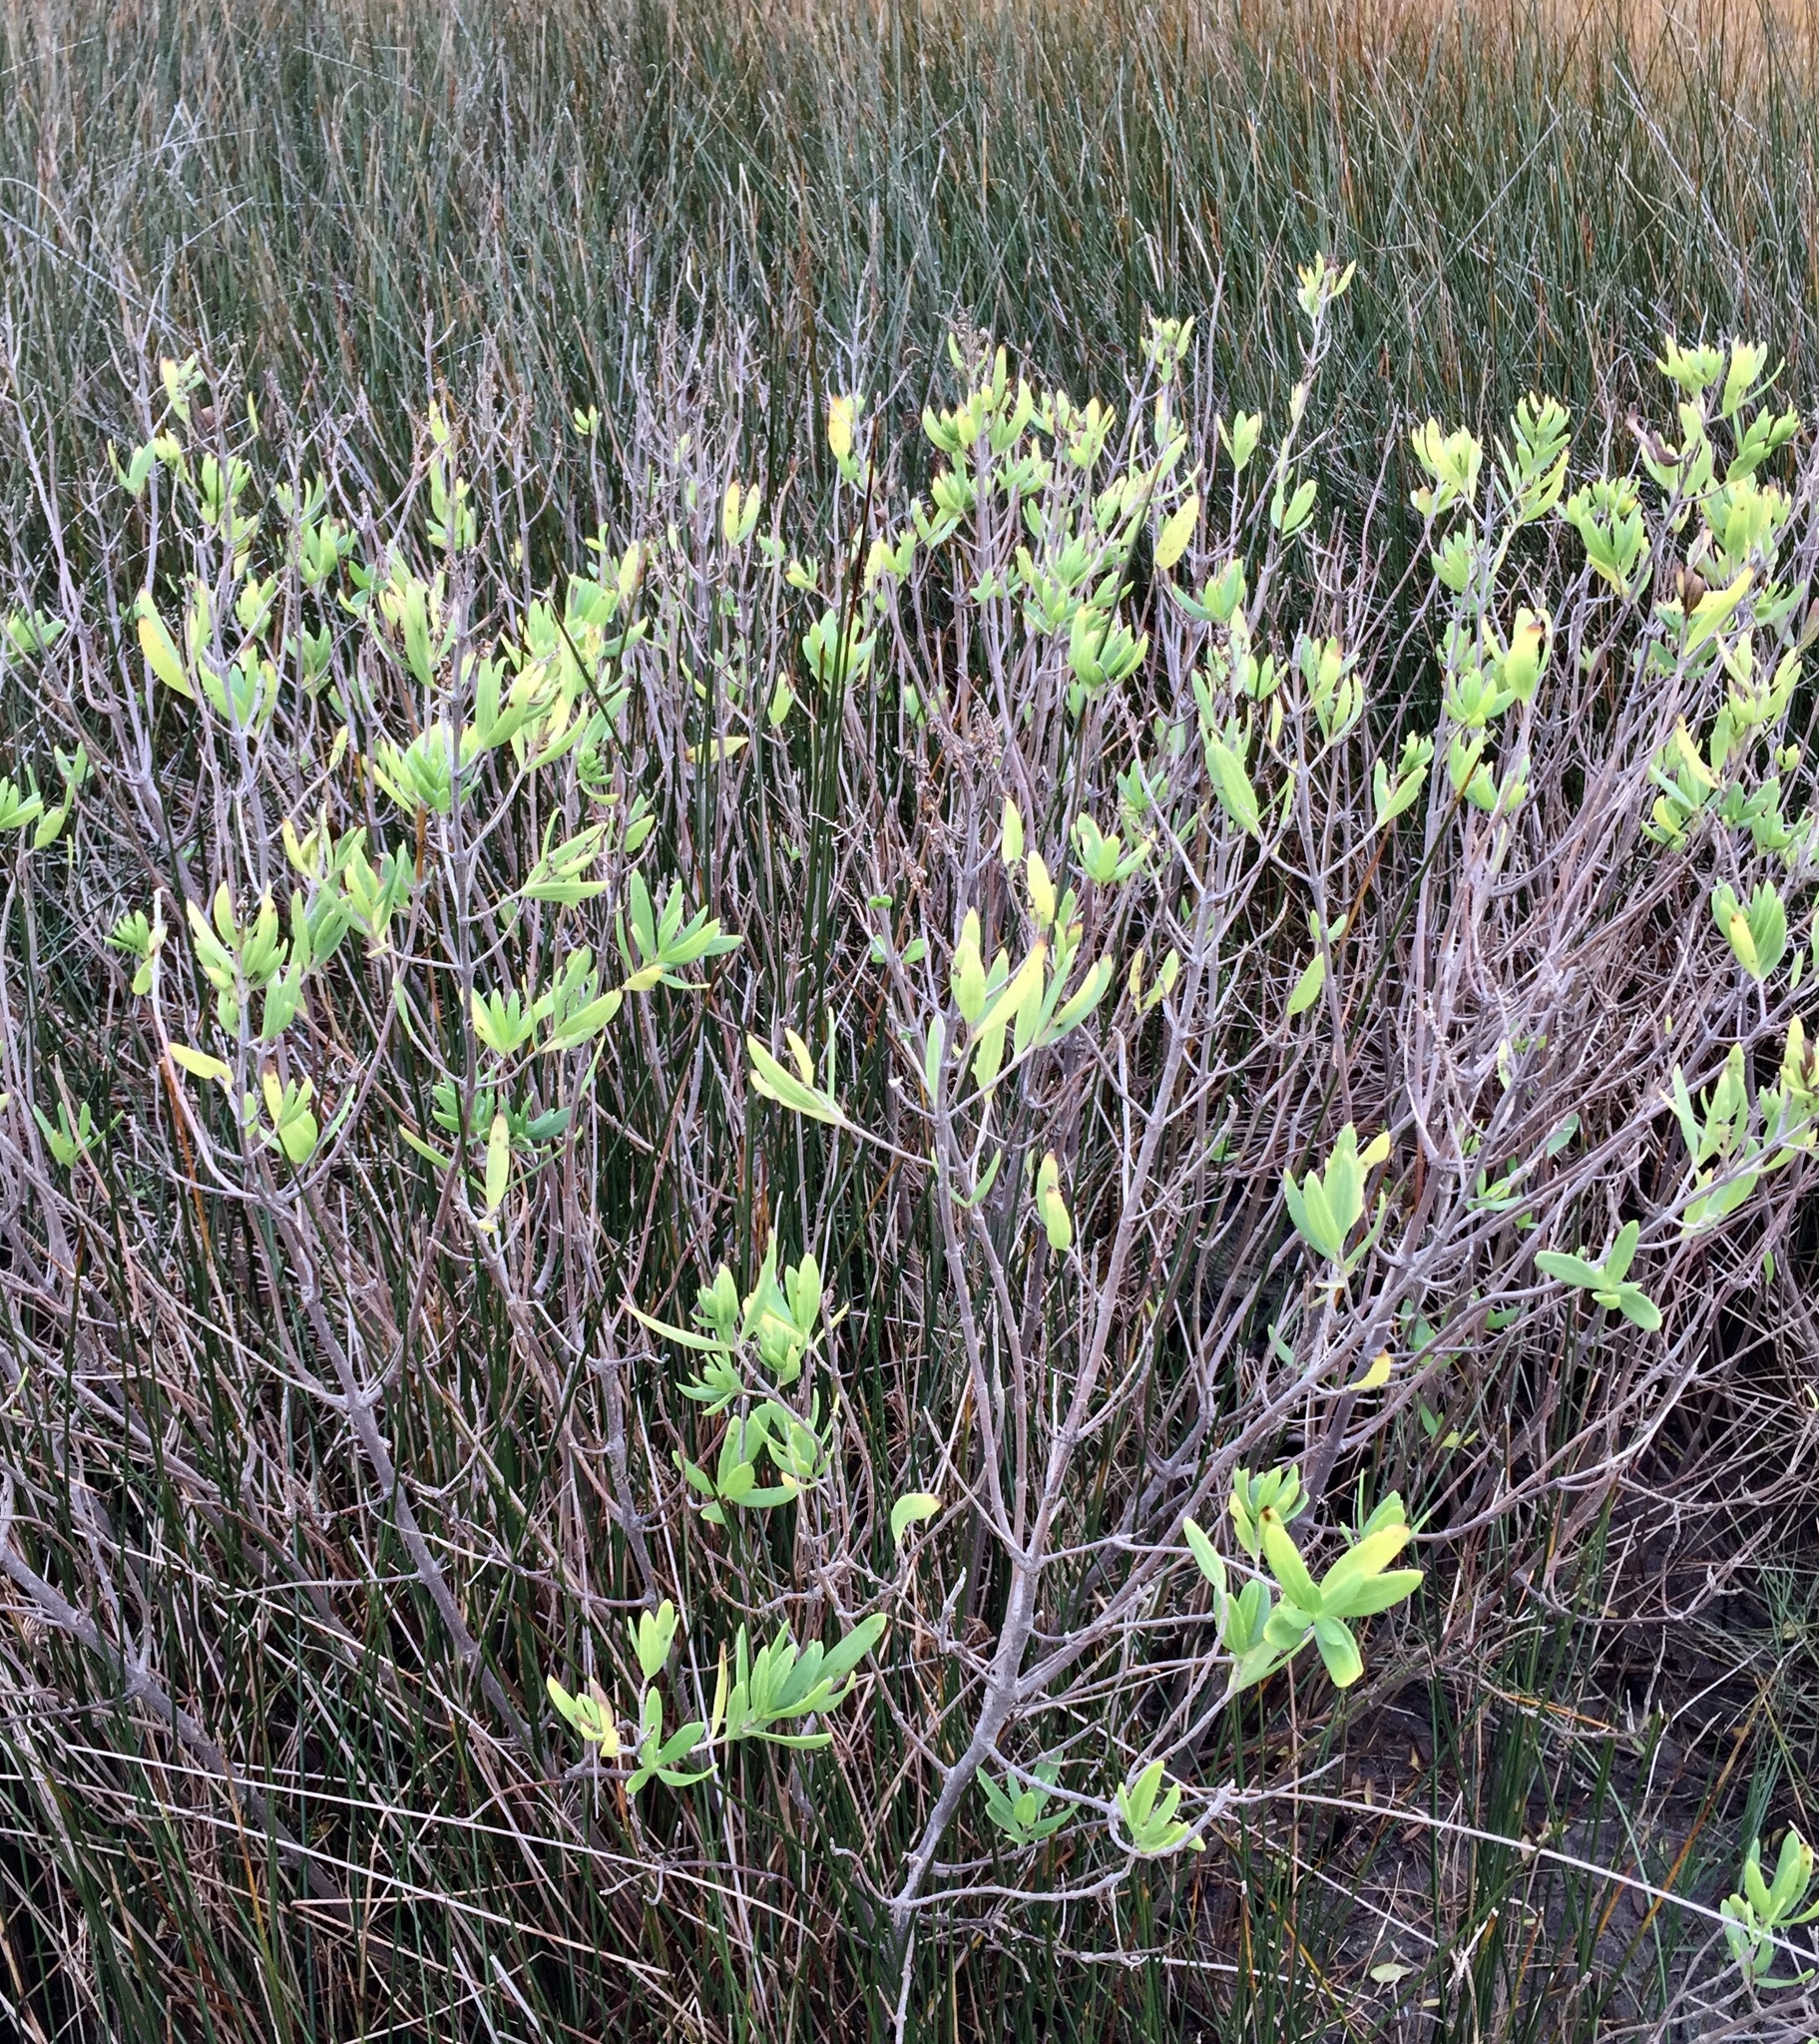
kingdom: Plantae
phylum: Tracheophyta
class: Magnoliopsida
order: Asterales
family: Asteraceae
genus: Iva
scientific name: Iva frutescens
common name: Big-leaved marsh-elder
